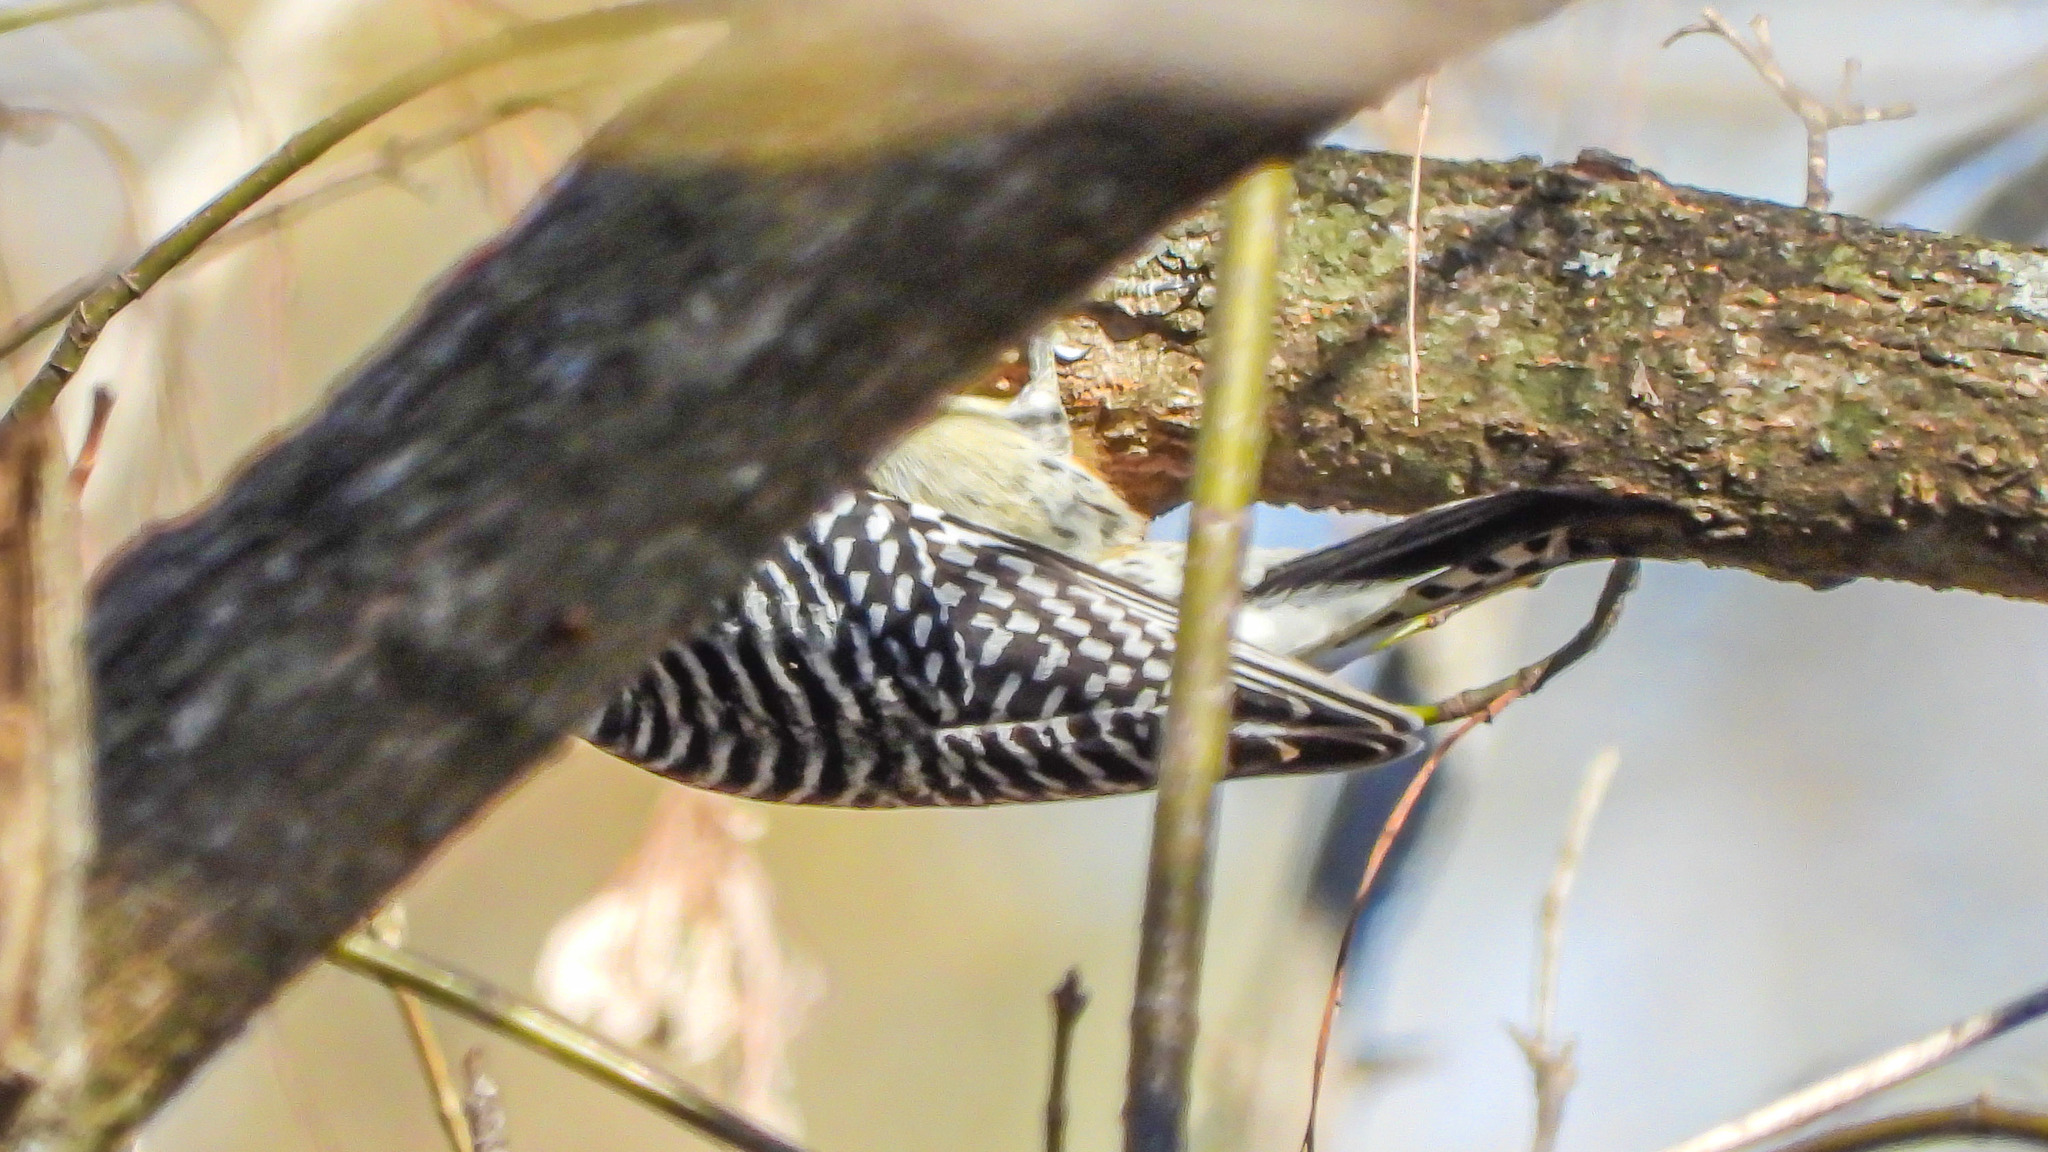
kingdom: Animalia
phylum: Chordata
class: Aves
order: Piciformes
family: Picidae
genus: Melanerpes
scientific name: Melanerpes carolinus
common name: Red-bellied woodpecker
